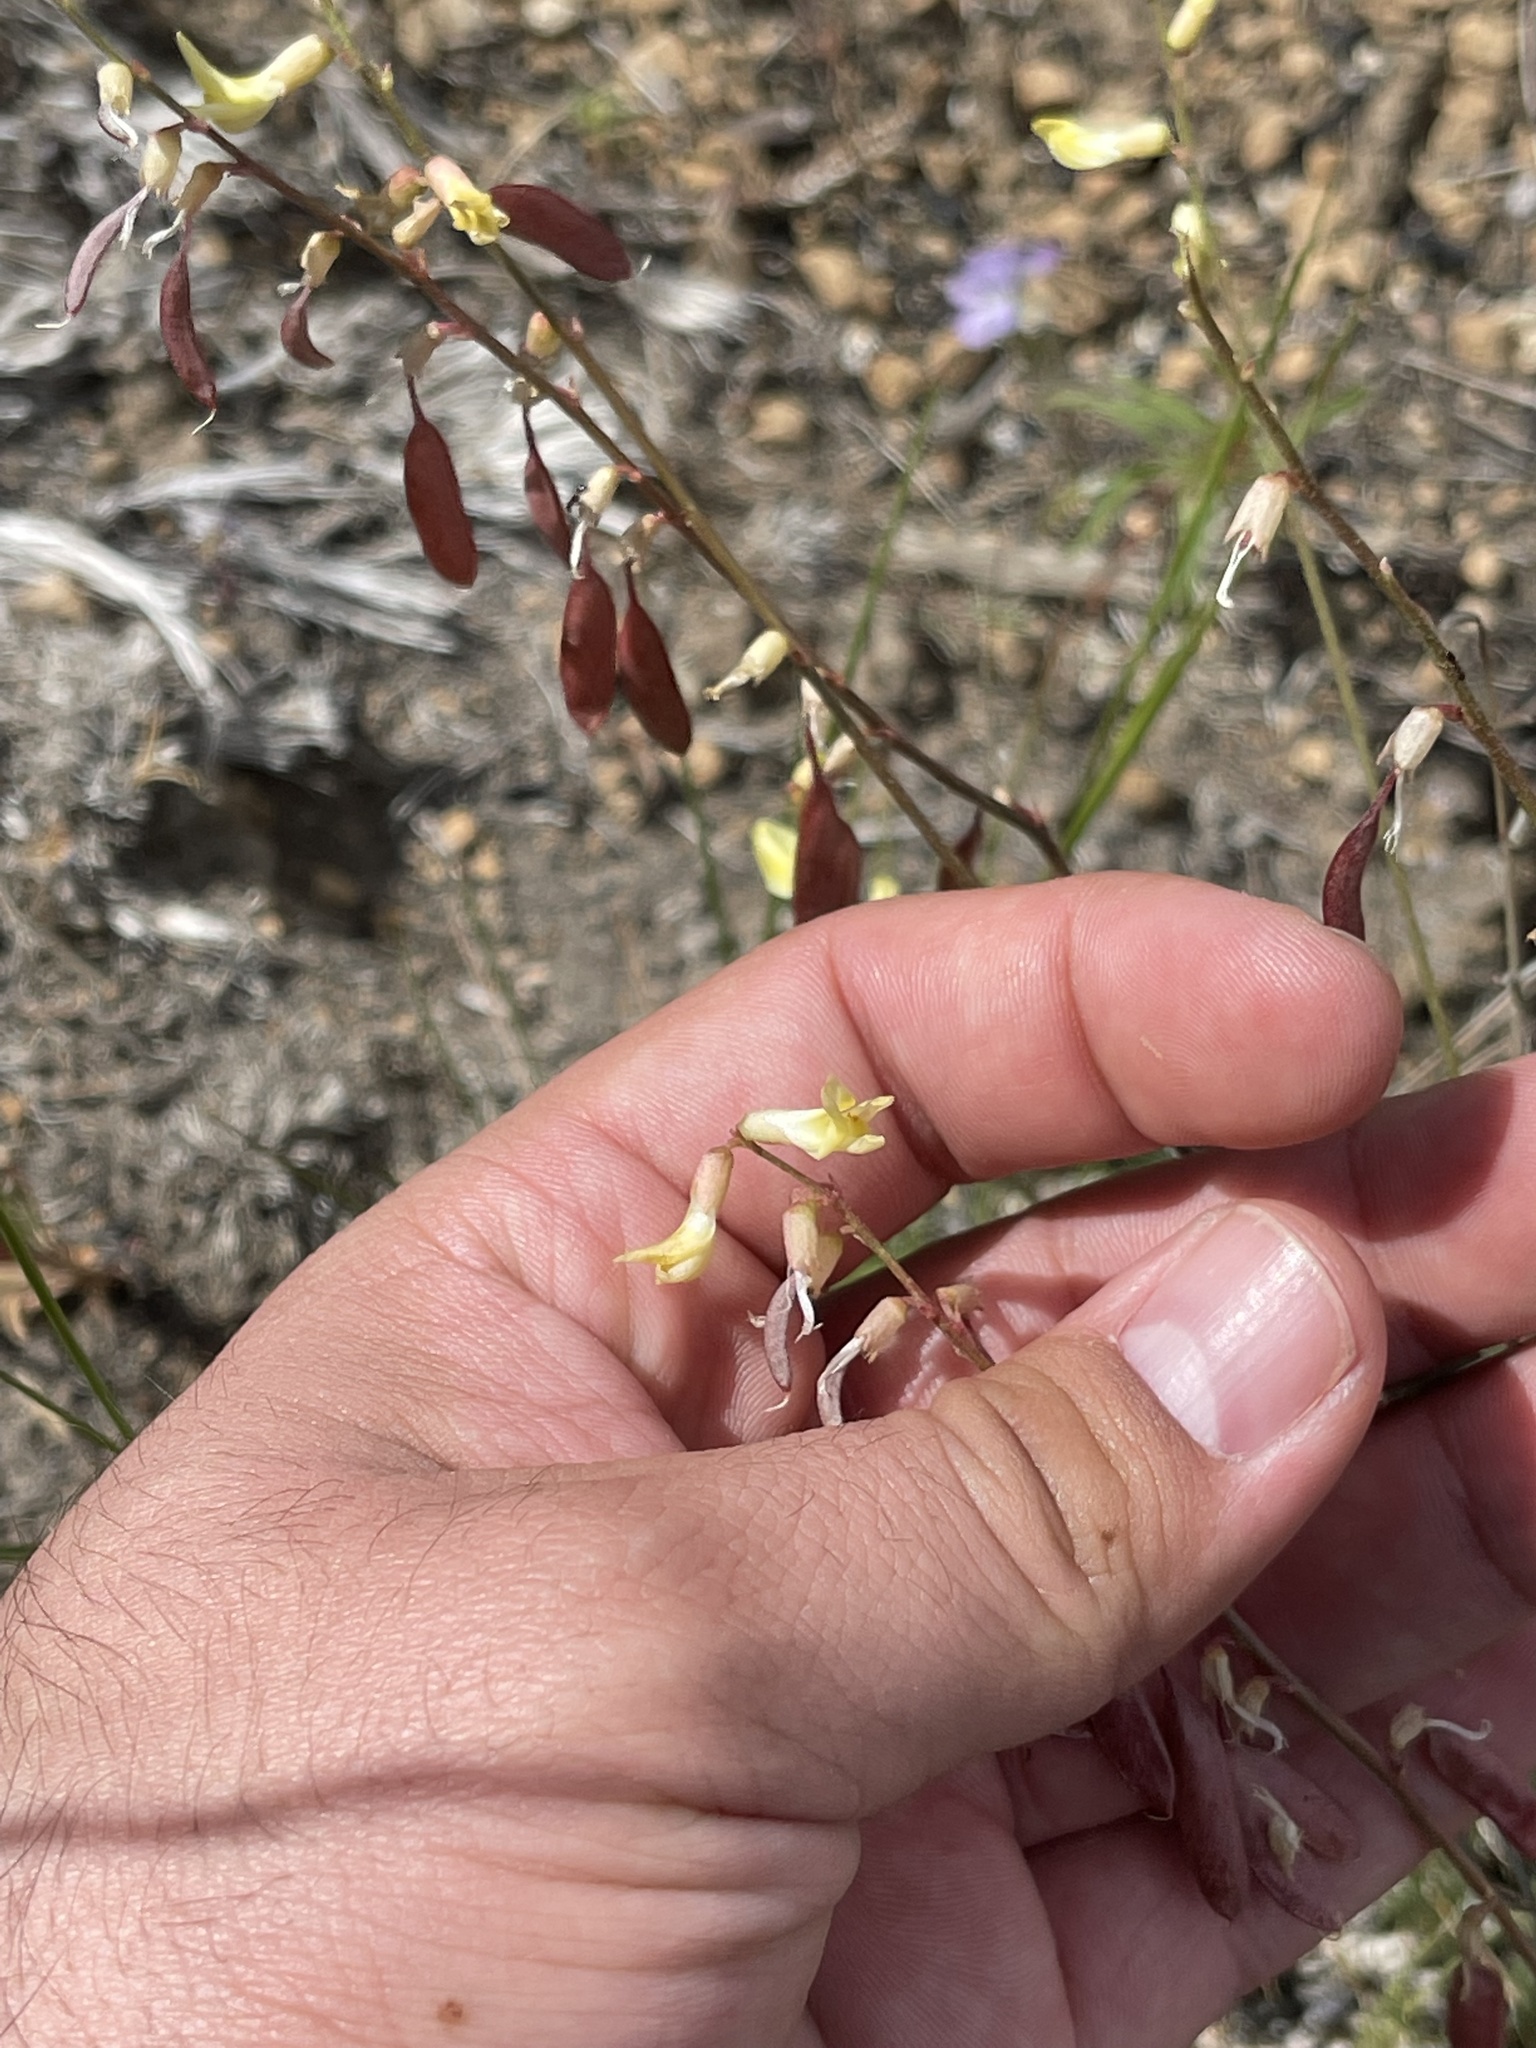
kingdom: Plantae
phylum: Tracheophyta
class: Magnoliopsida
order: Fabales
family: Fabaceae
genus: Astragalus
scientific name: Astragalus filipes
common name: Basalt milk-vetch
